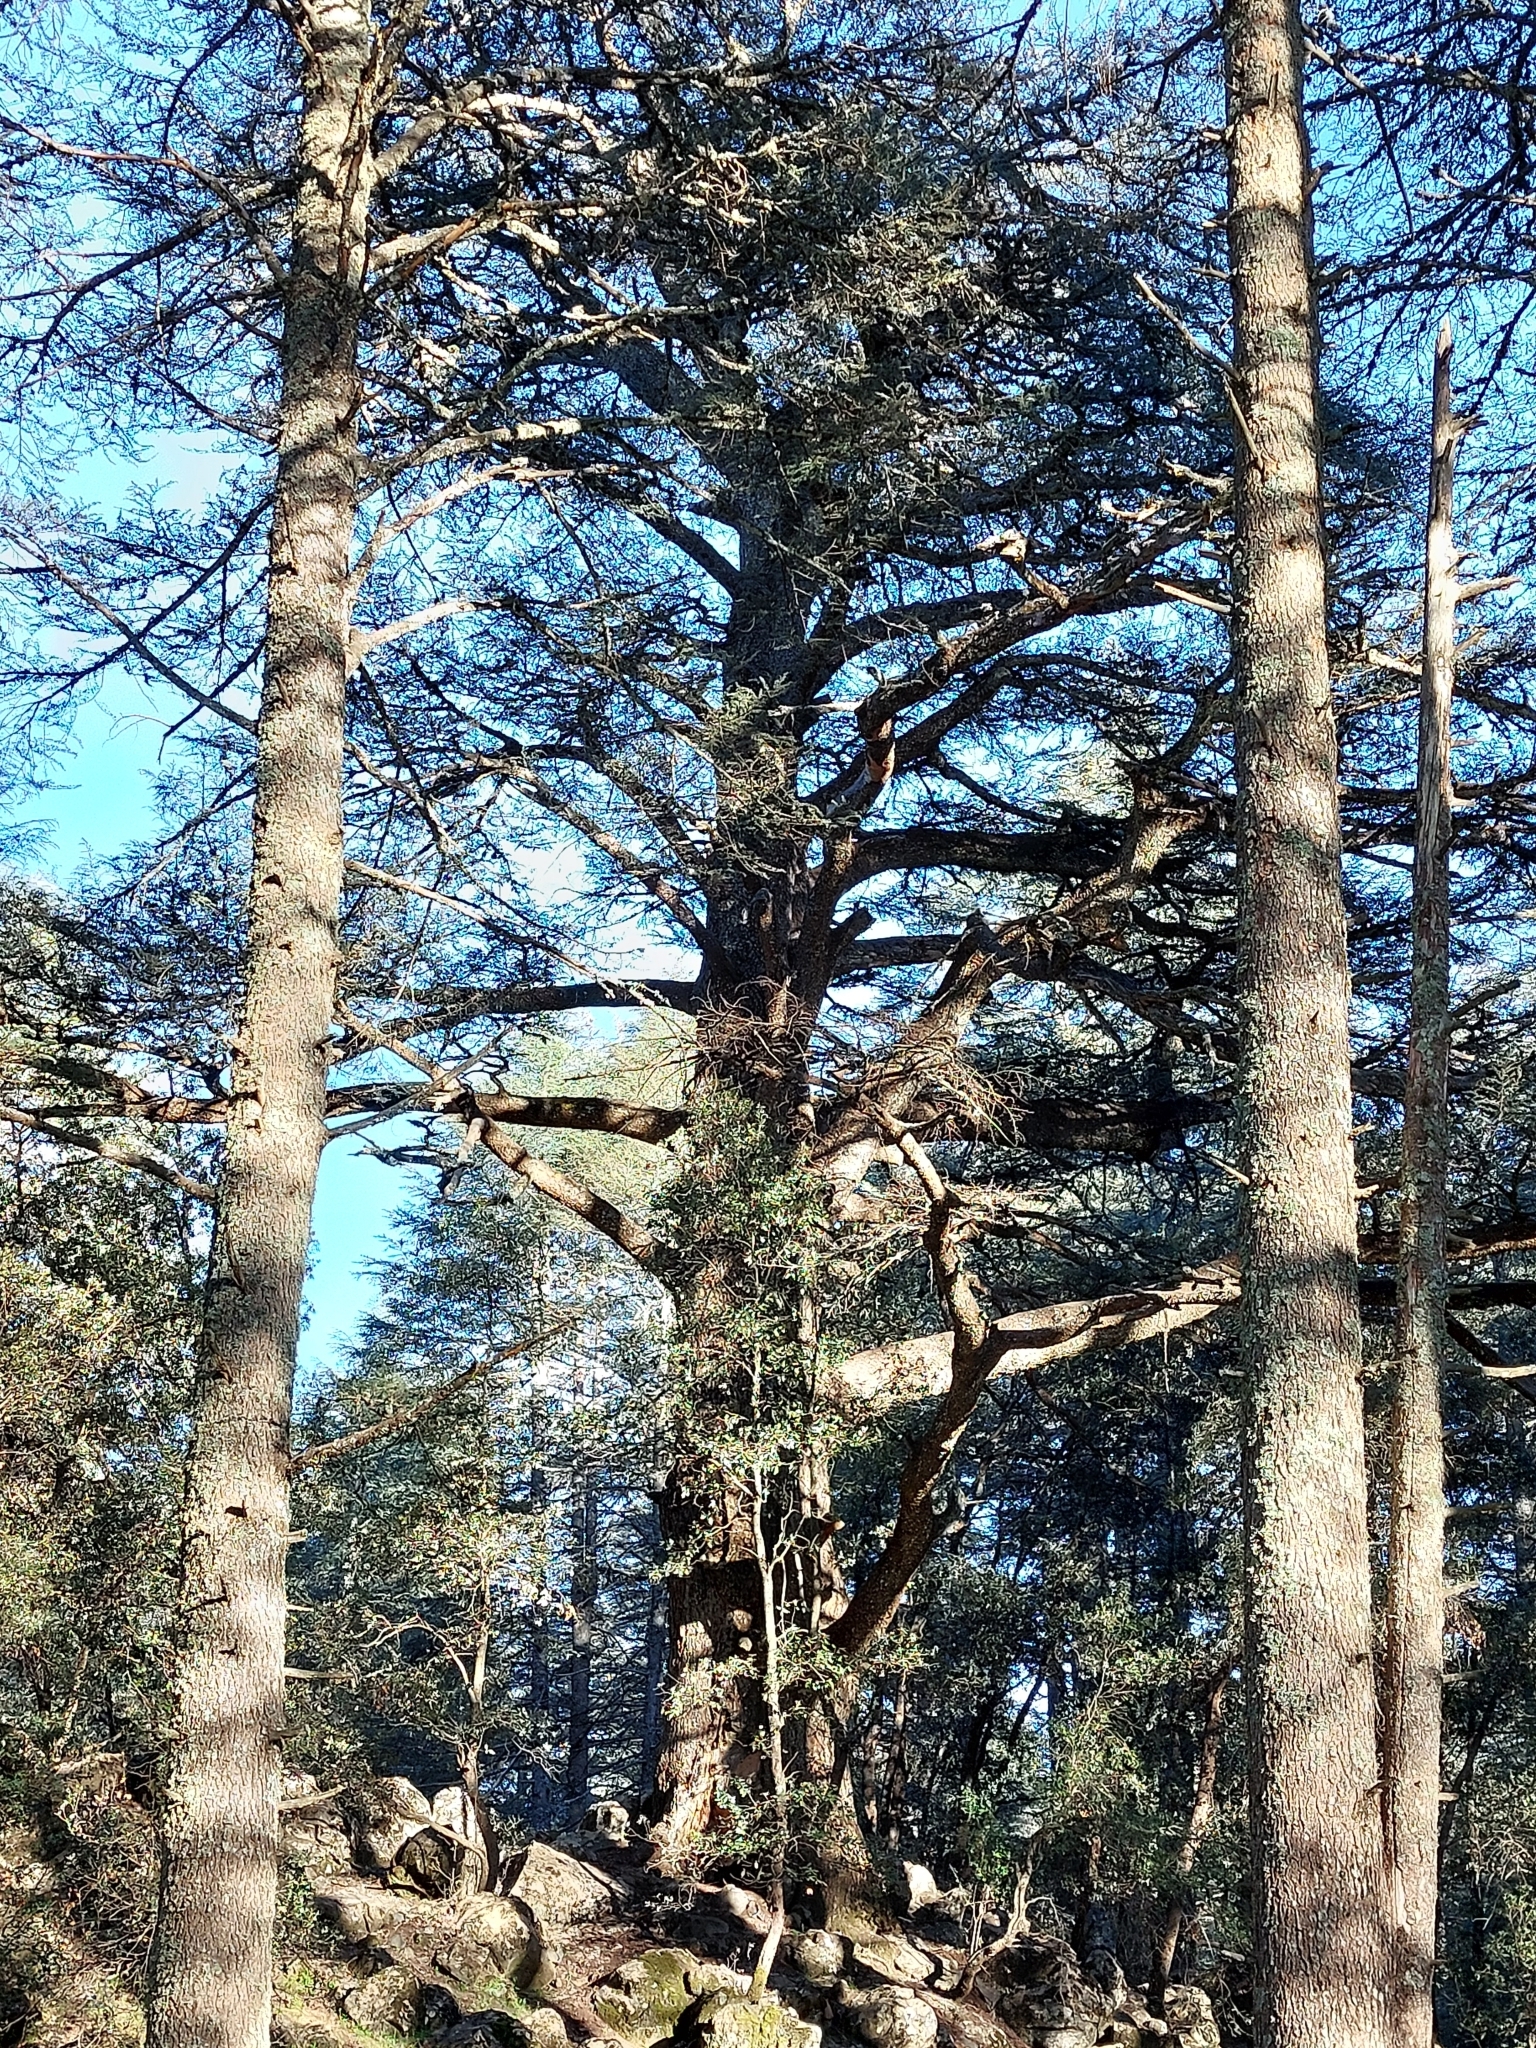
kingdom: Plantae
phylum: Tracheophyta
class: Pinopsida
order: Pinales
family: Pinaceae
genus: Cedrus
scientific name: Cedrus atlantica
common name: Atlas cedar
